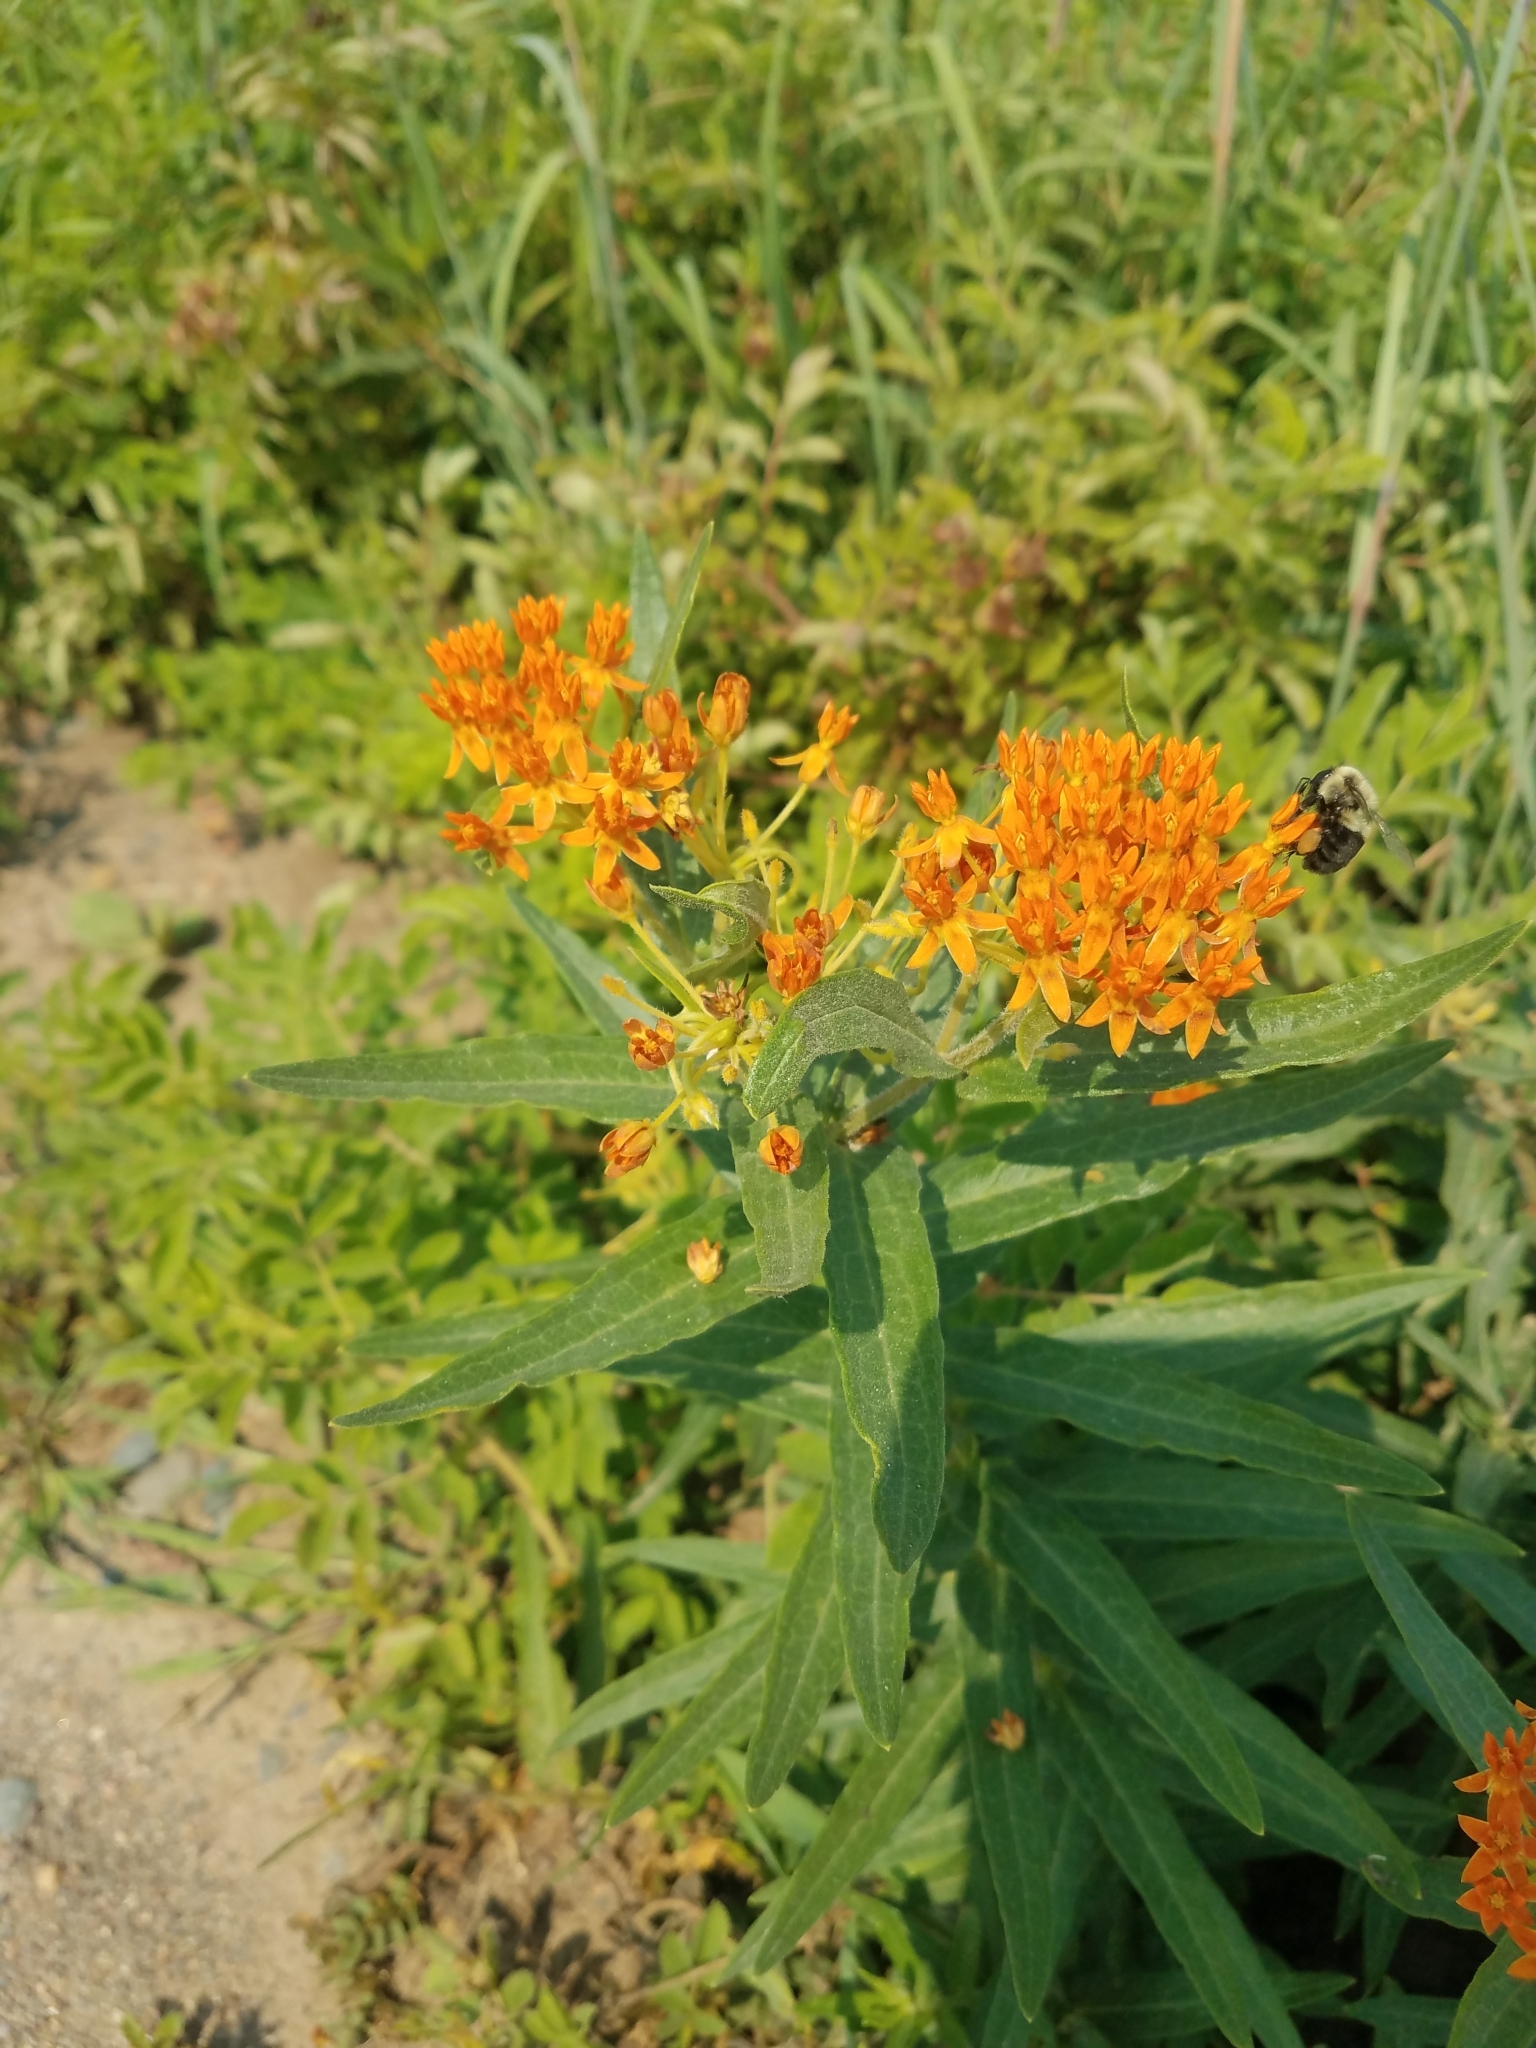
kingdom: Plantae
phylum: Tracheophyta
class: Magnoliopsida
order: Gentianales
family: Apocynaceae
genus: Asclepias
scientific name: Asclepias tuberosa
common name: Butterfly milkweed
